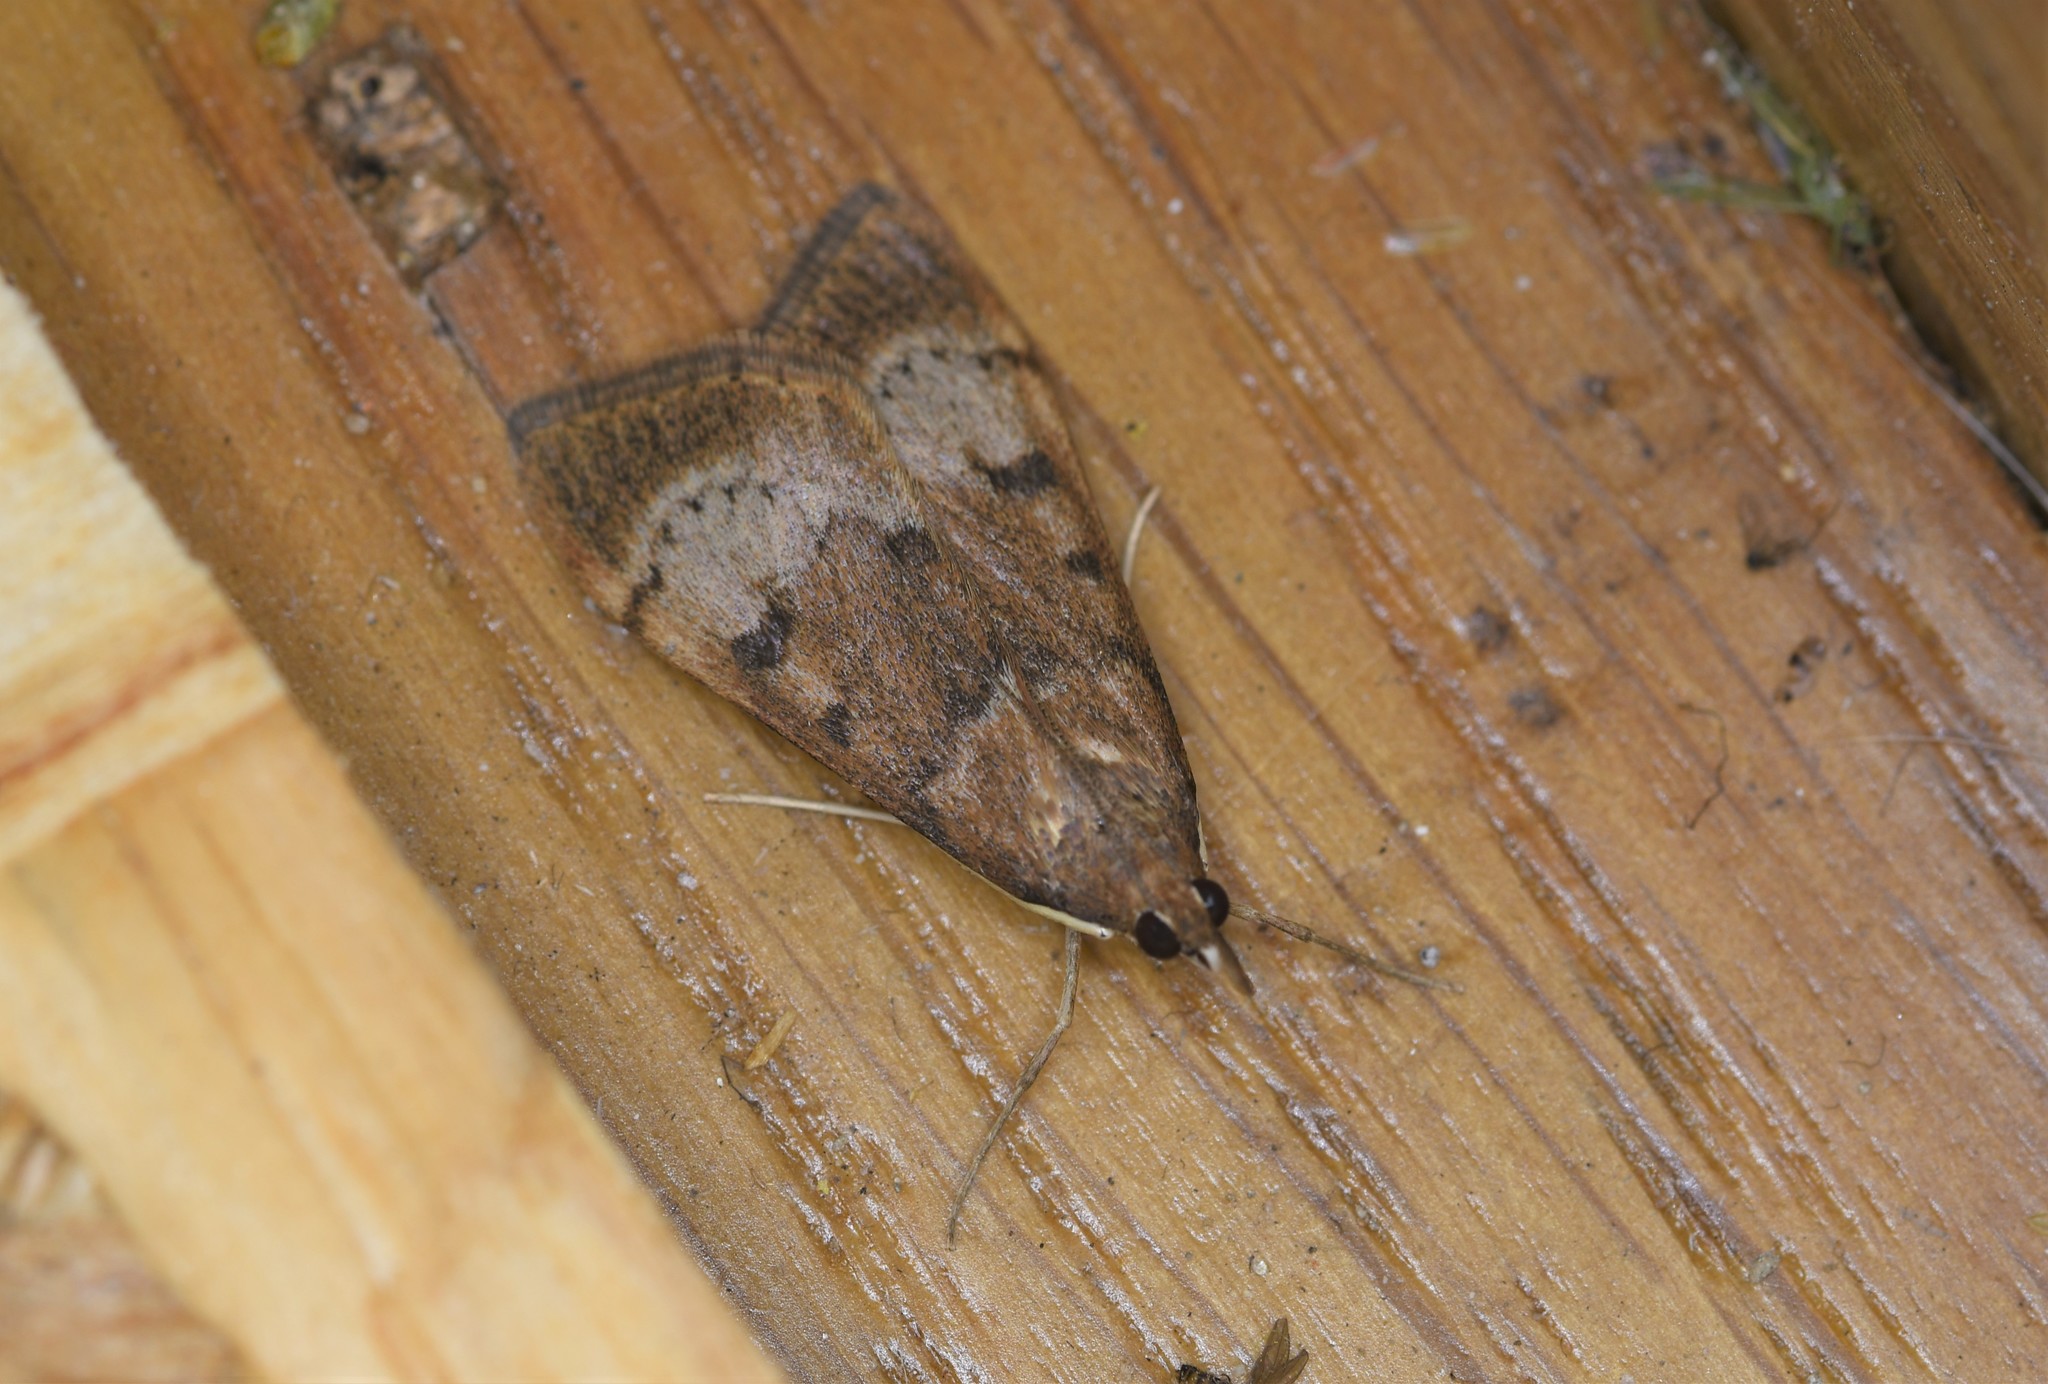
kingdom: Animalia
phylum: Arthropoda
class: Insecta
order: Lepidoptera
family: Crambidae
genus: Uresiphita
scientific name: Uresiphita gilvata
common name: Yellow-underwing pearl
